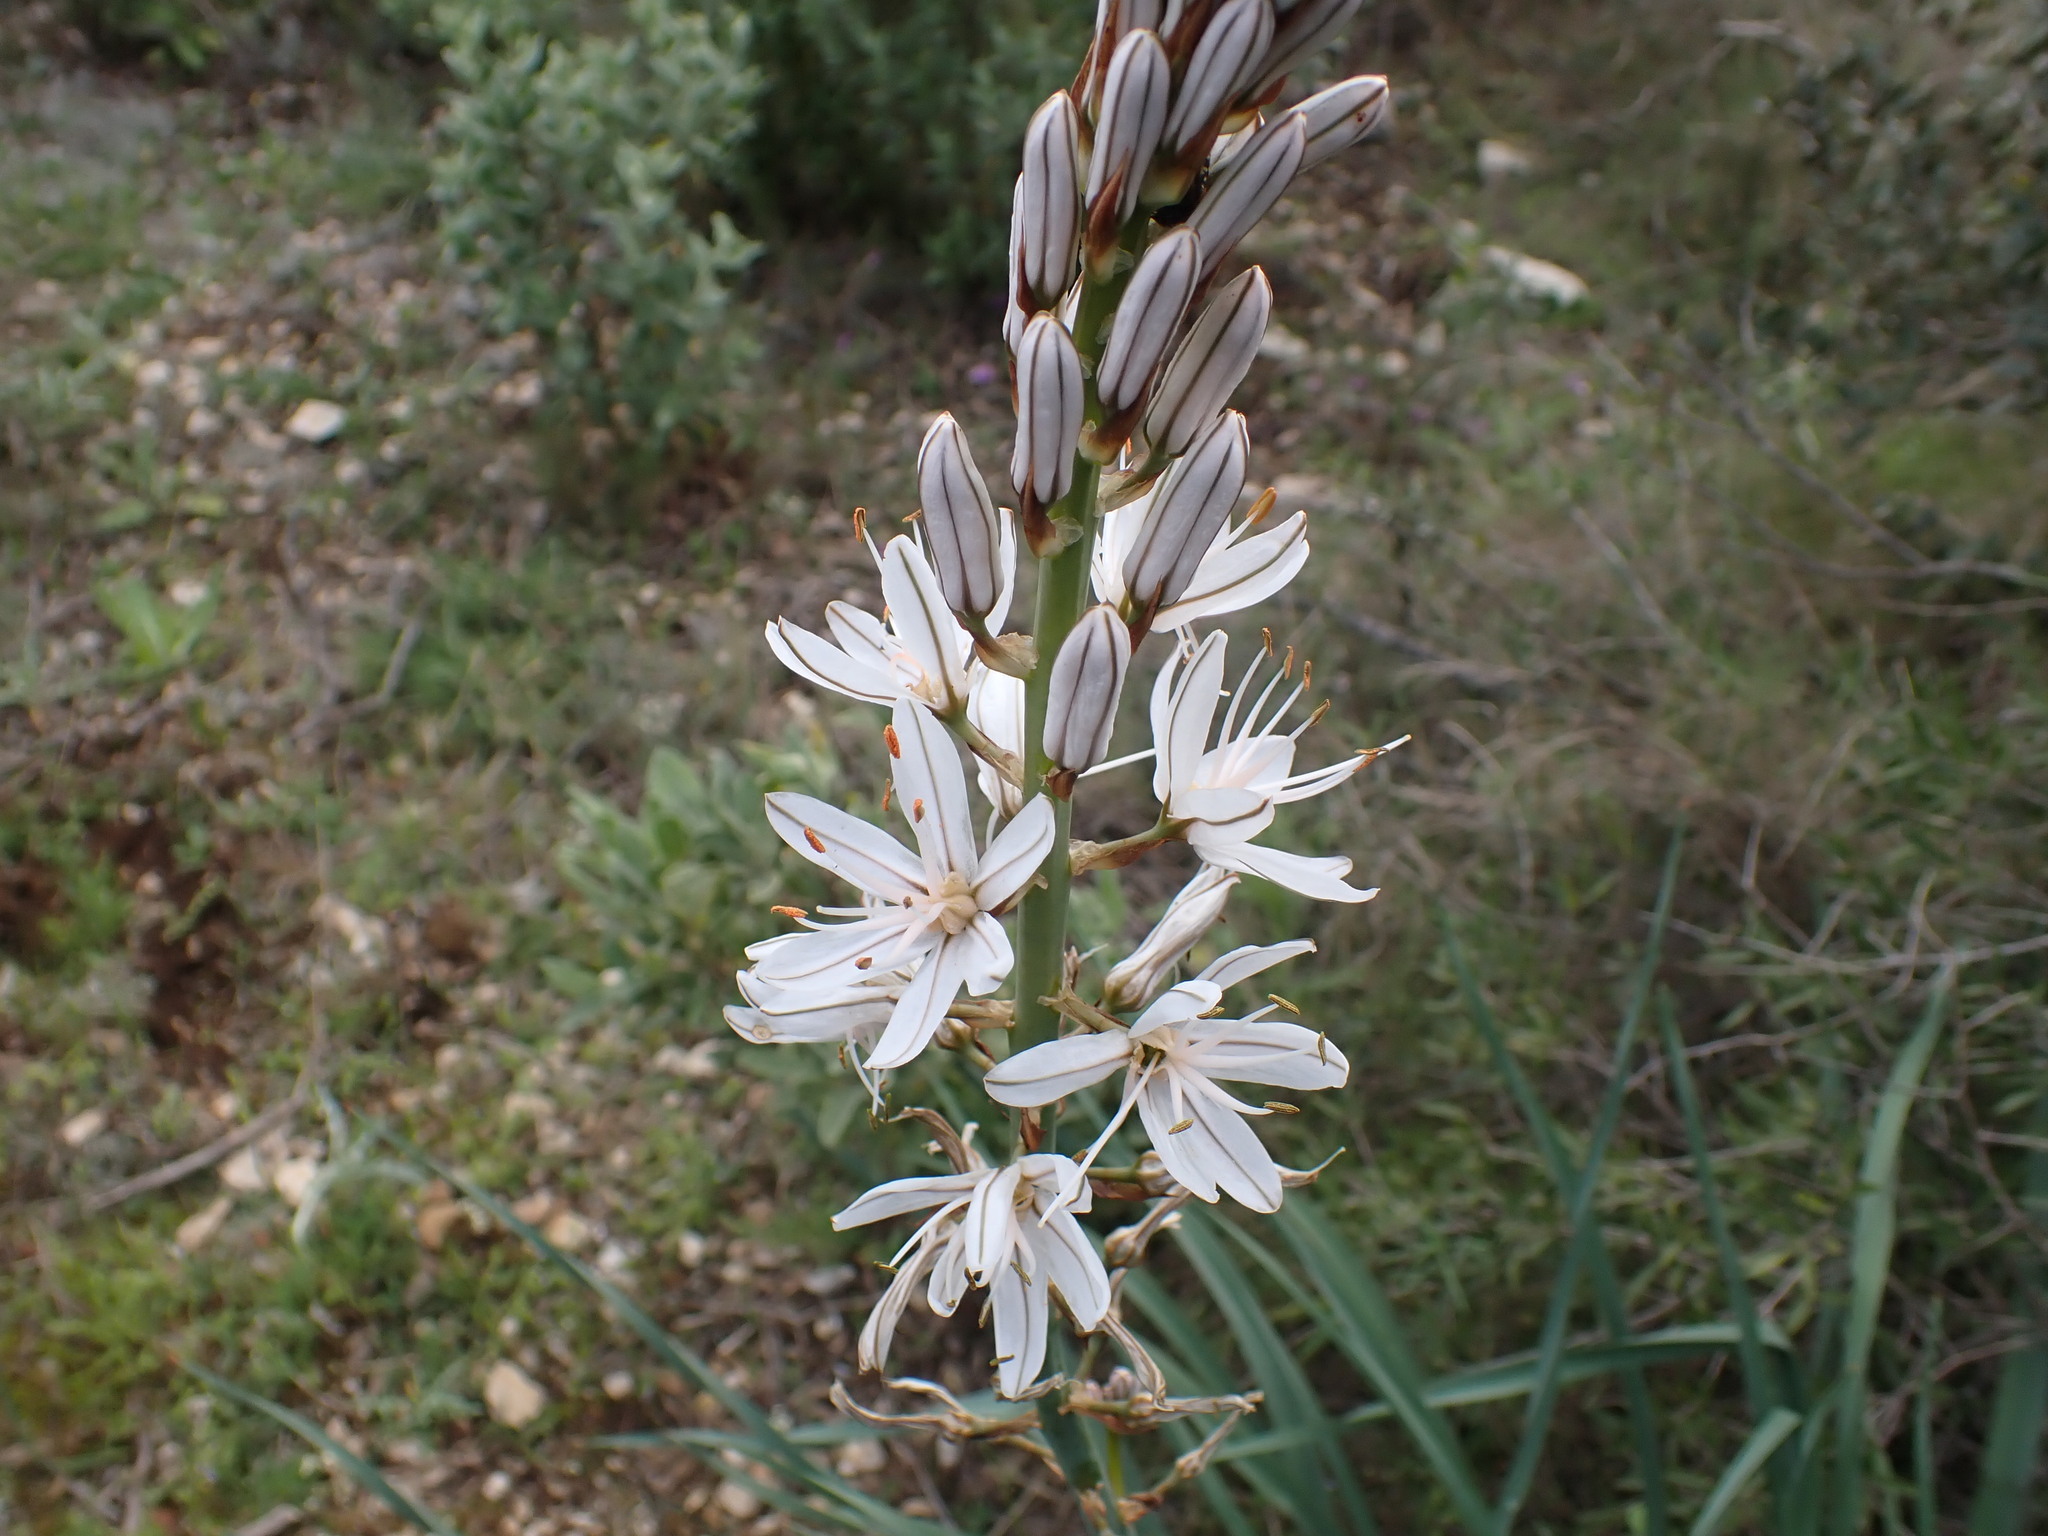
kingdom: Plantae
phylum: Tracheophyta
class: Liliopsida
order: Asparagales
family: Asphodelaceae
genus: Asphodelus
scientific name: Asphodelus cerasifer
